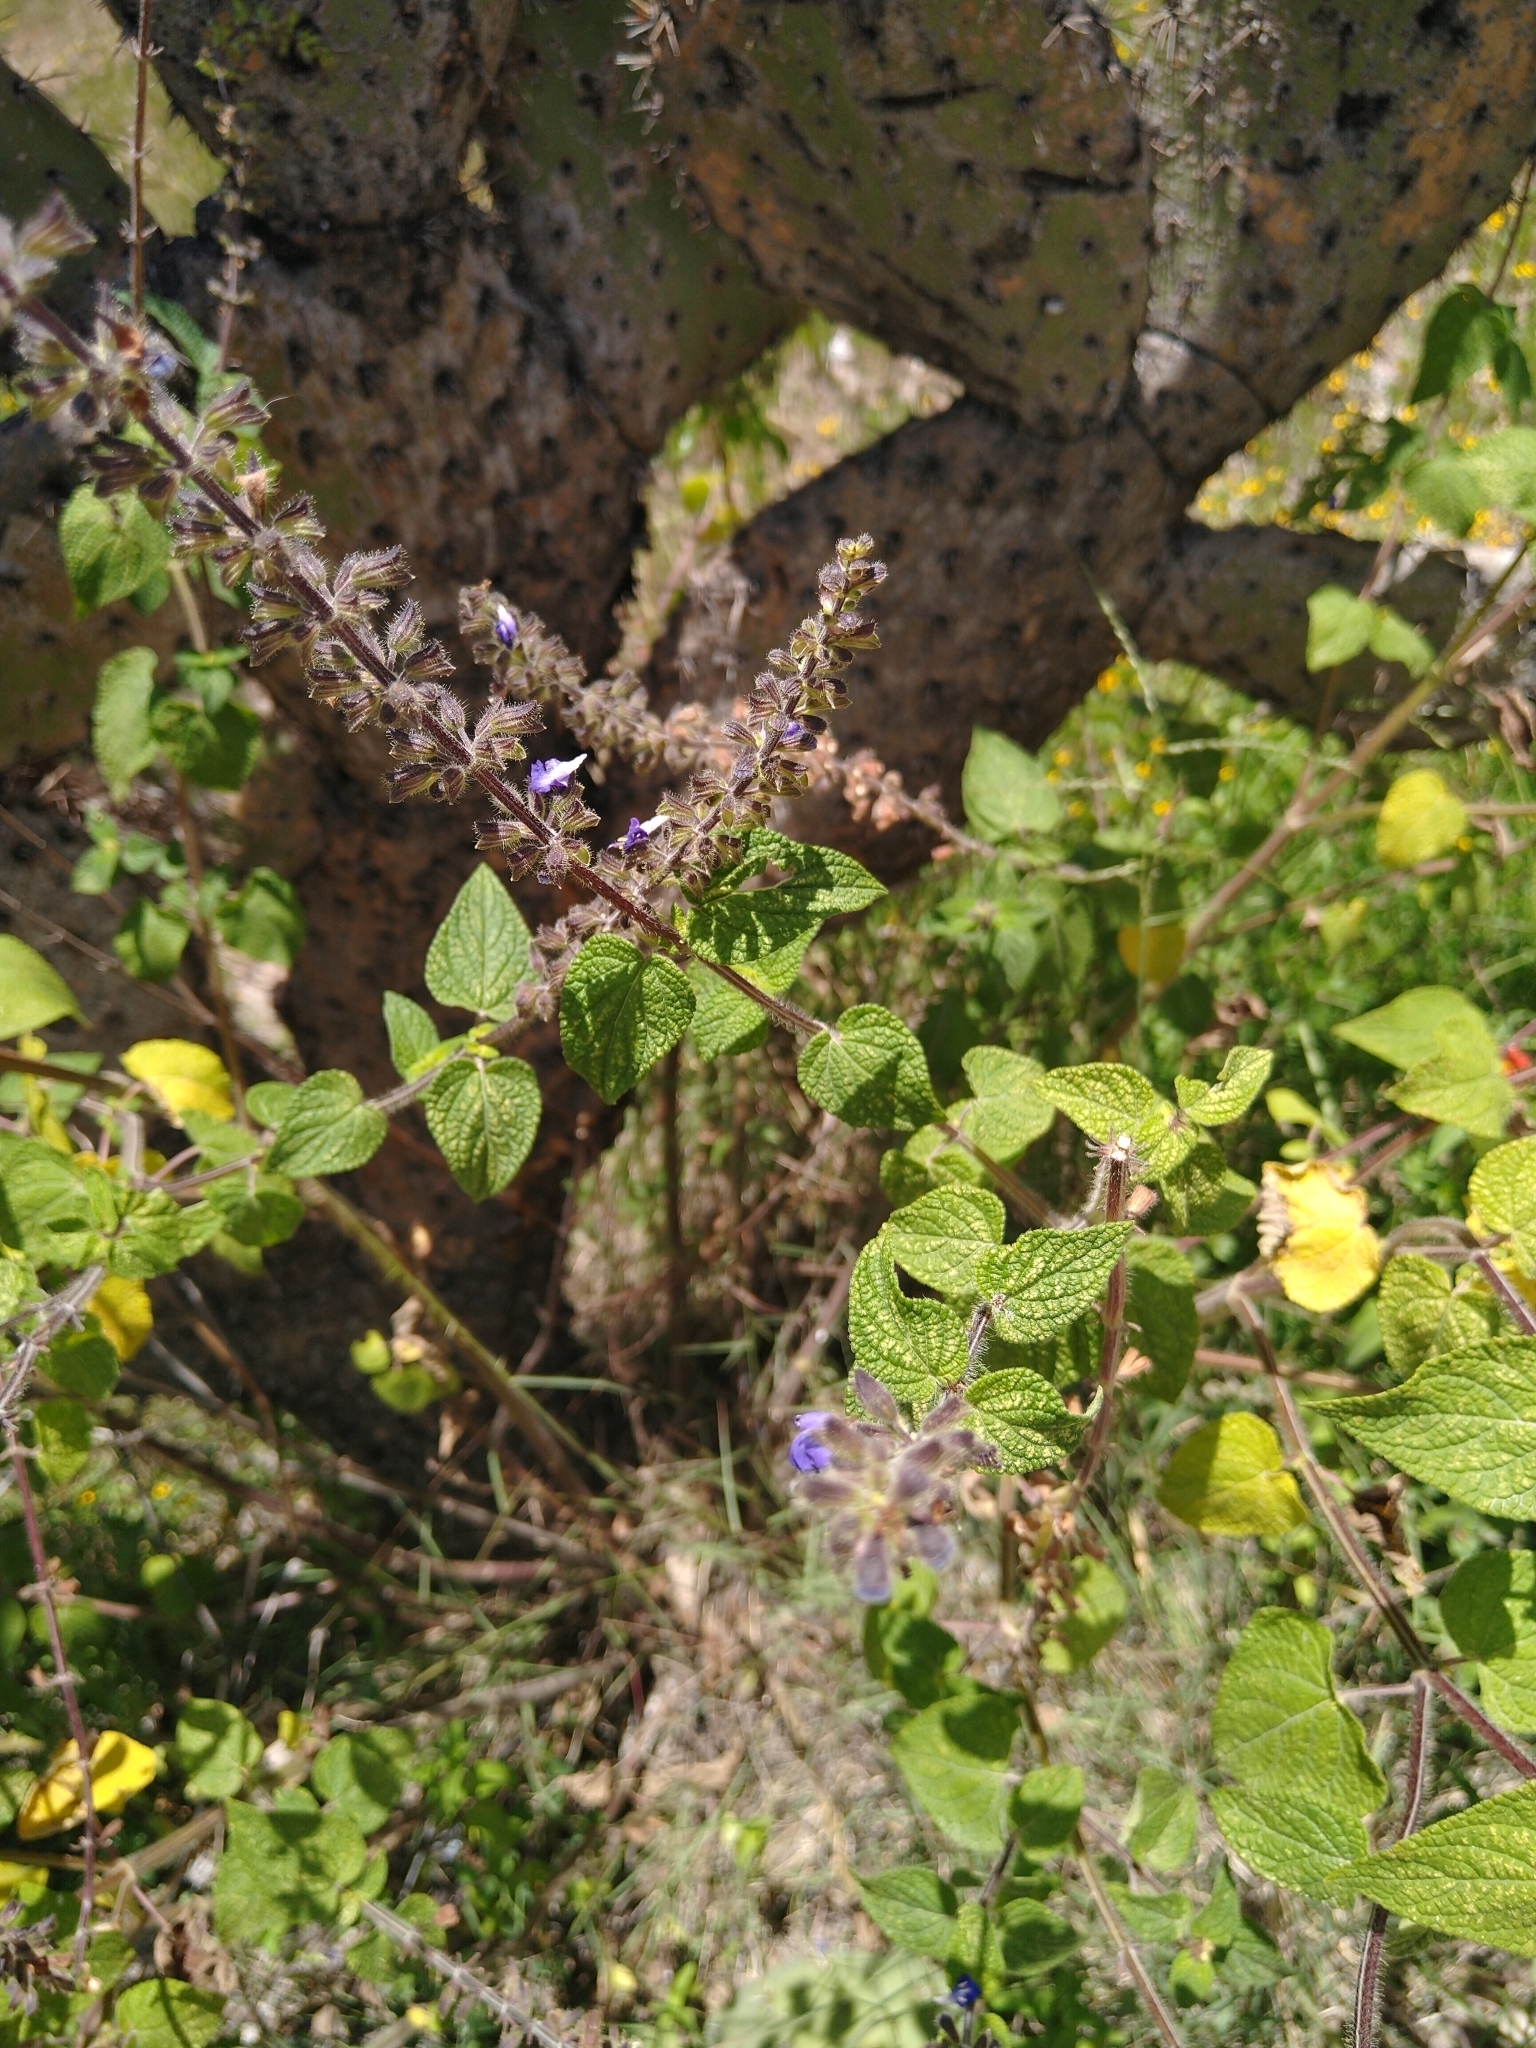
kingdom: Plantae
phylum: Tracheophyta
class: Magnoliopsida
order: Lamiales
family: Lamiaceae
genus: Salvia
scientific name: Salvia circinnata
